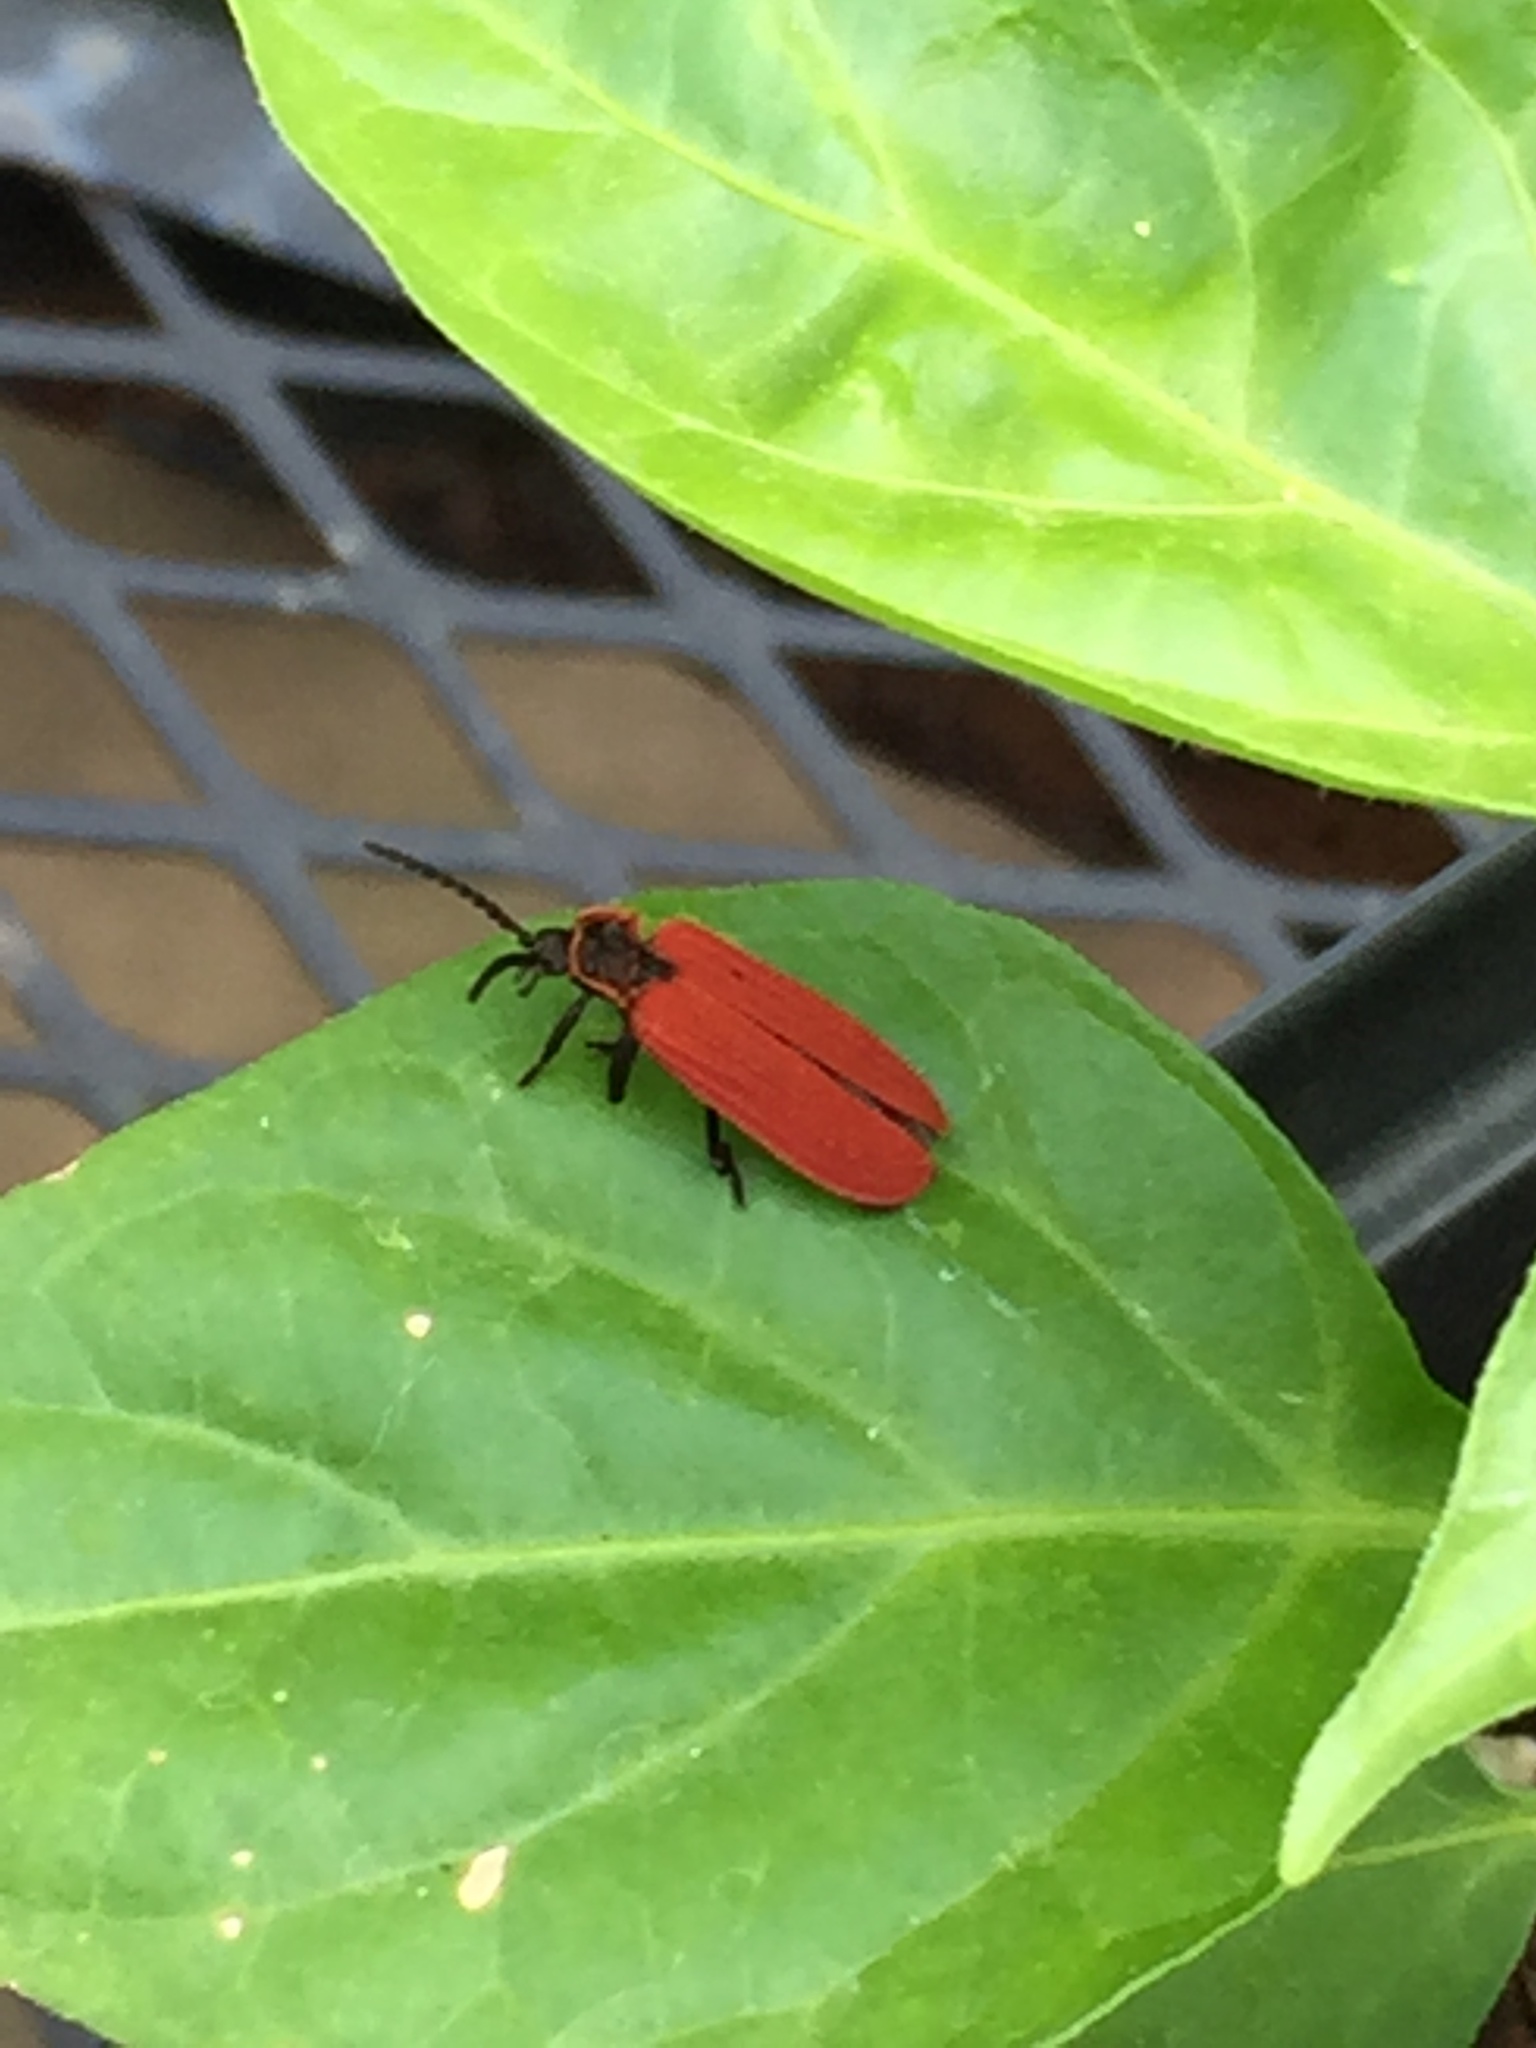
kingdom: Animalia
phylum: Arthropoda
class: Insecta
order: Coleoptera
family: Lycidae
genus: Dictyoptera
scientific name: Dictyoptera aurora
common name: Golden net-winged beetle
